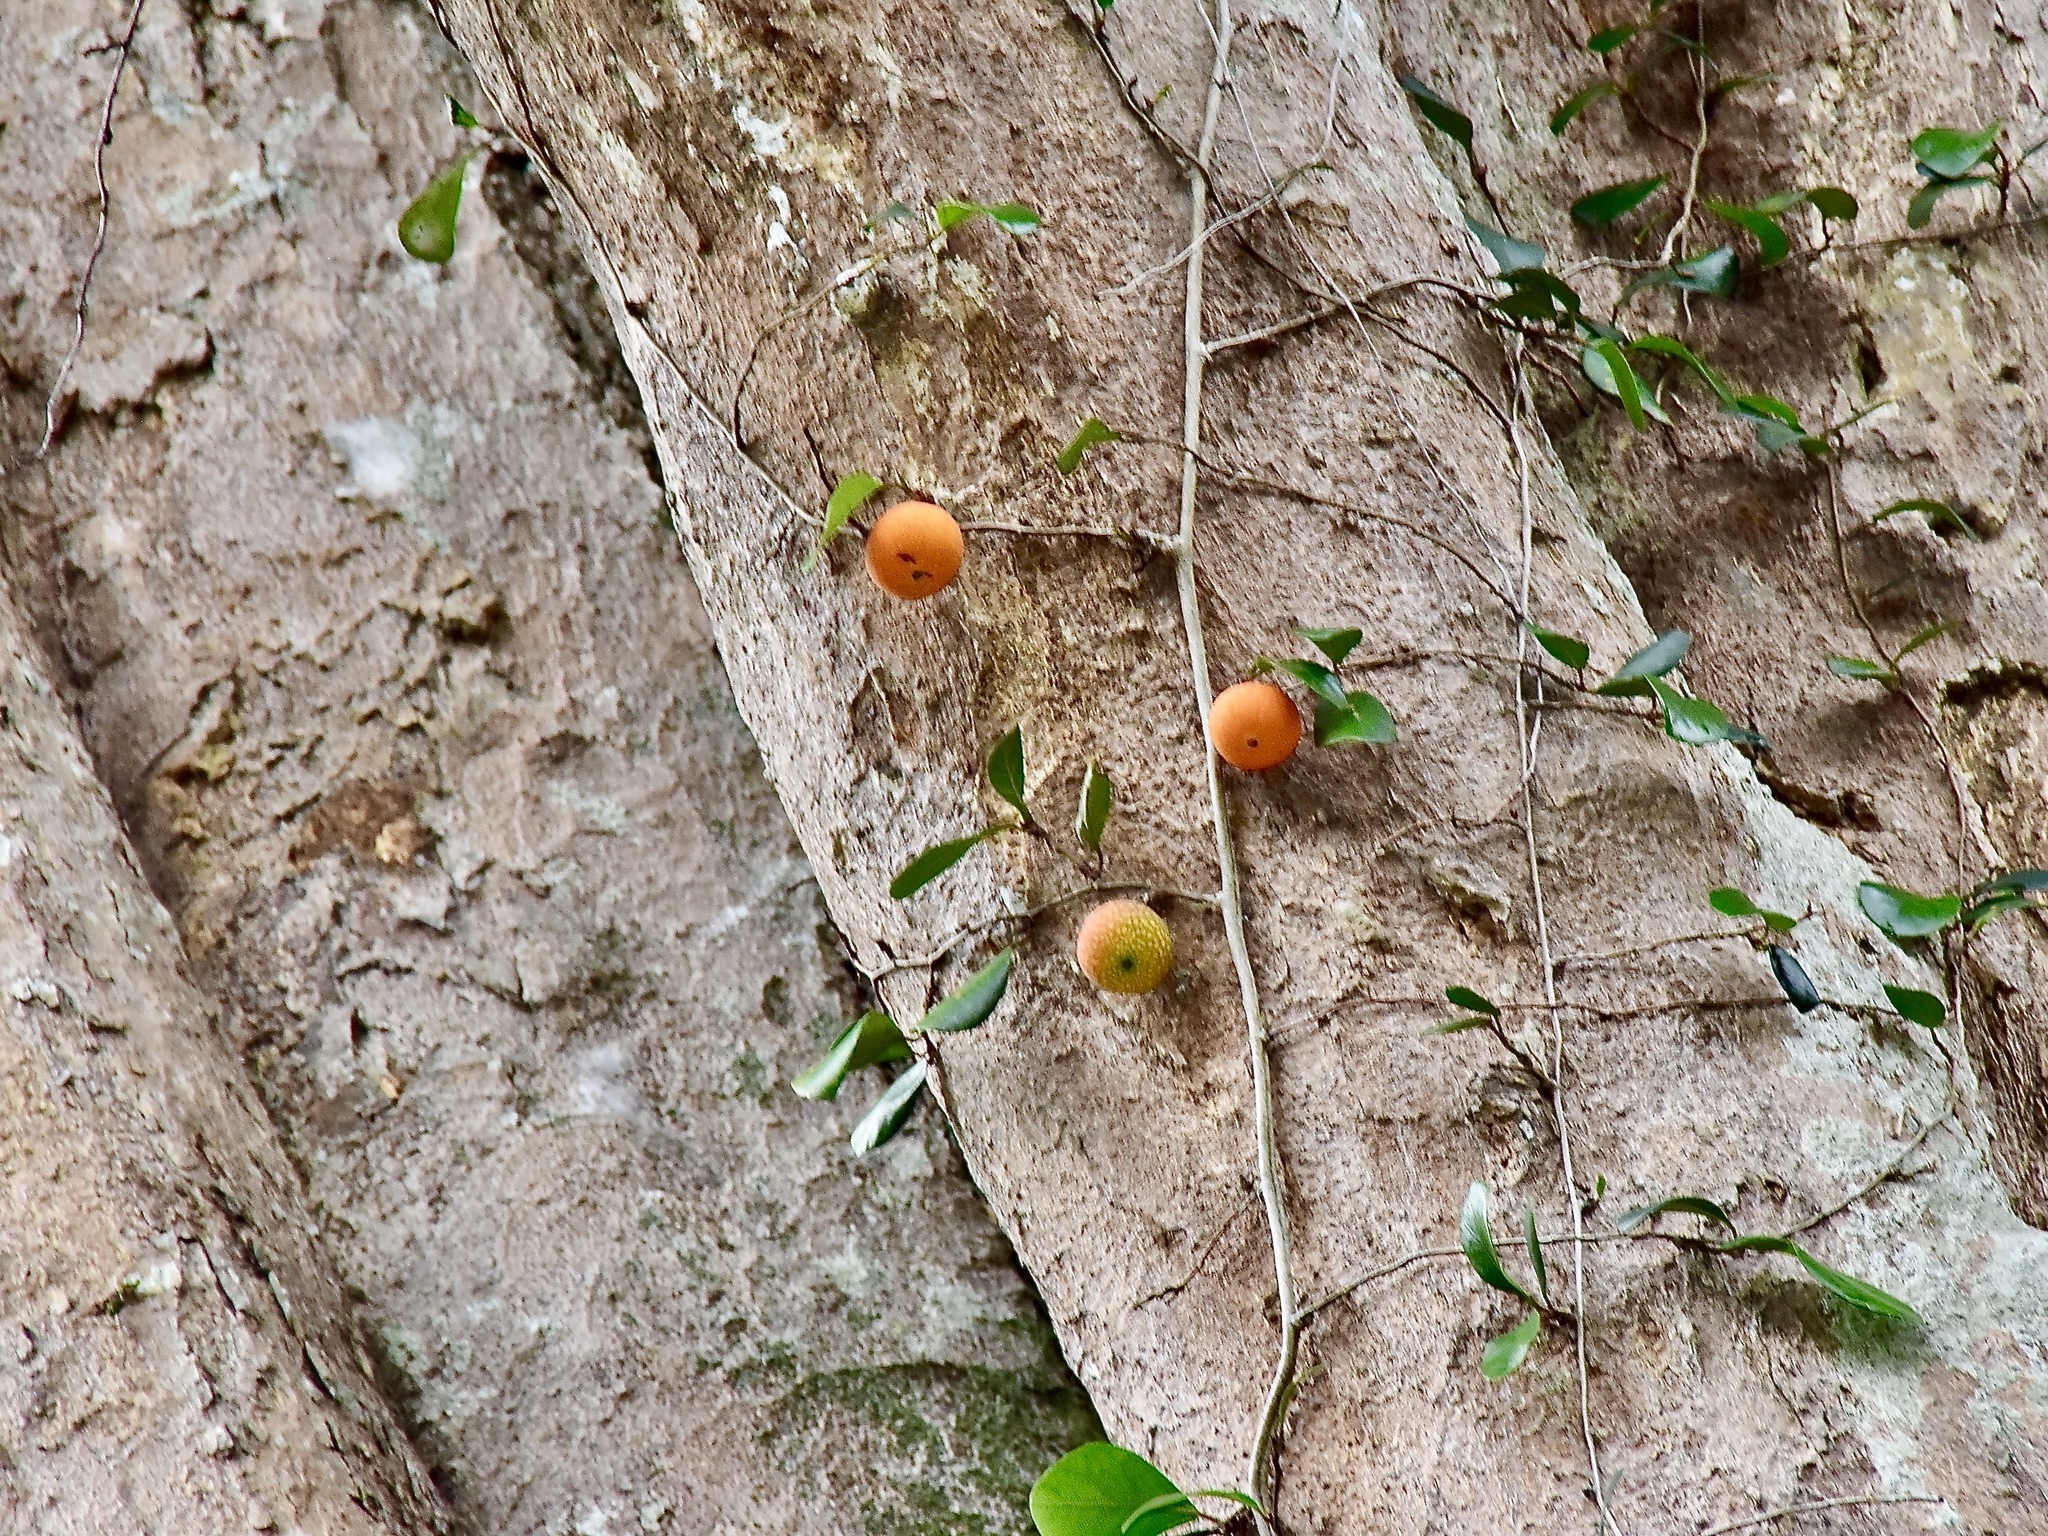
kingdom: Plantae
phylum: Tracheophyta
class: Magnoliopsida
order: Rosales
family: Moraceae
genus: Ficus
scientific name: Ficus punctata
